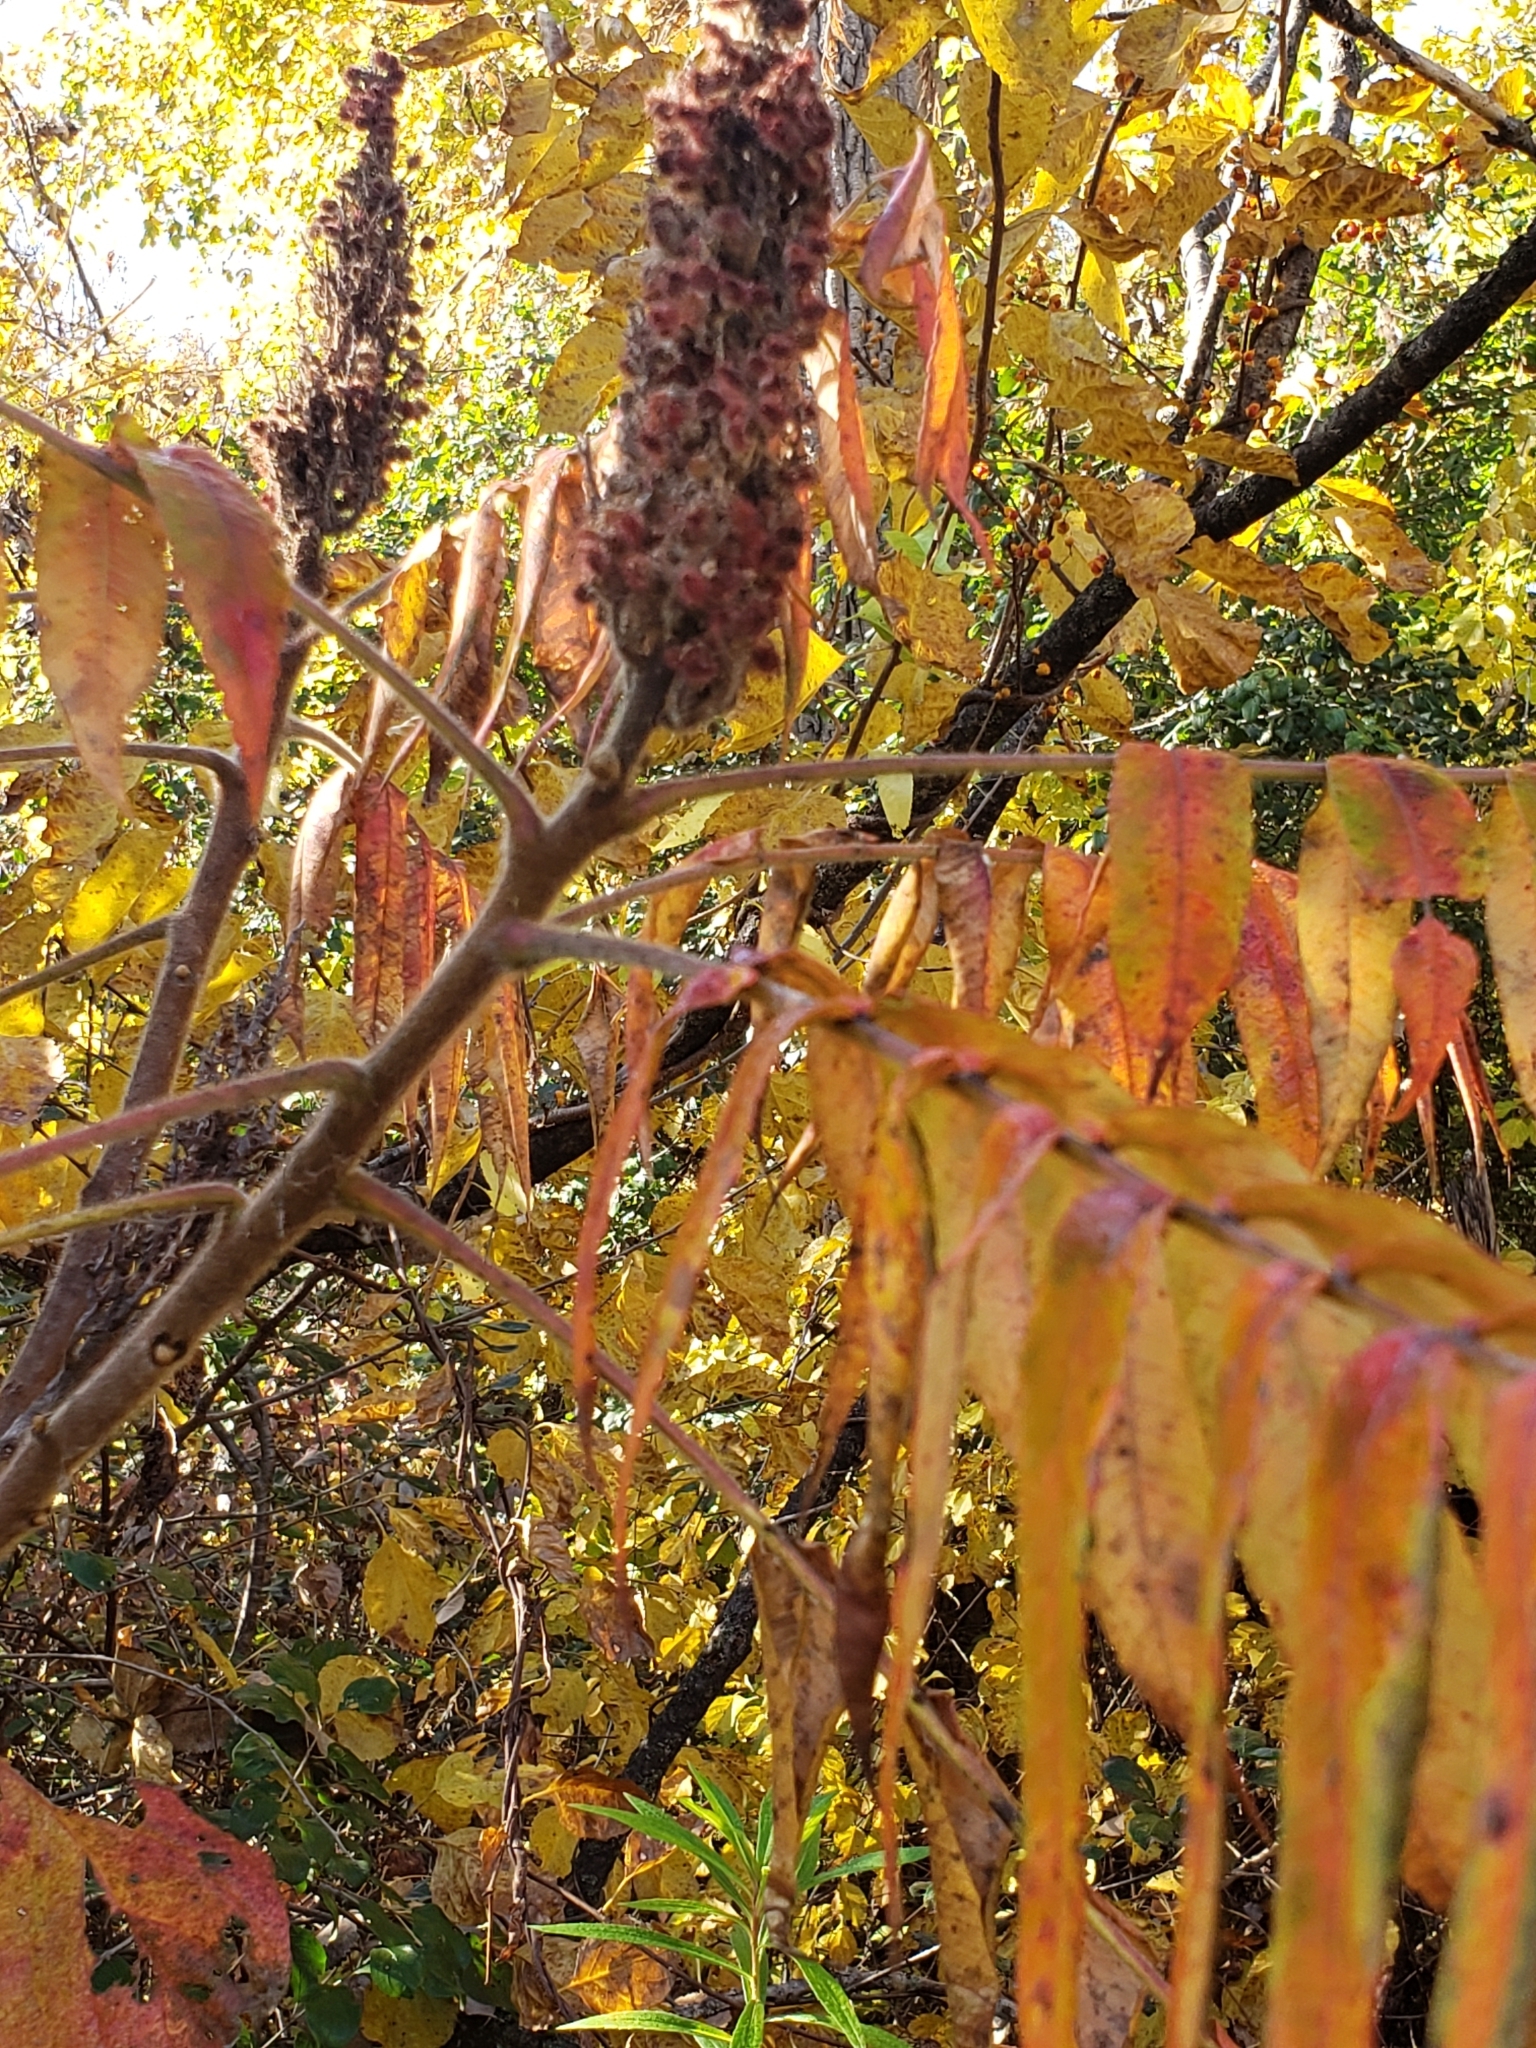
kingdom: Plantae
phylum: Tracheophyta
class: Magnoliopsida
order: Sapindales
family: Anacardiaceae
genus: Rhus
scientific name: Rhus typhina
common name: Staghorn sumac
